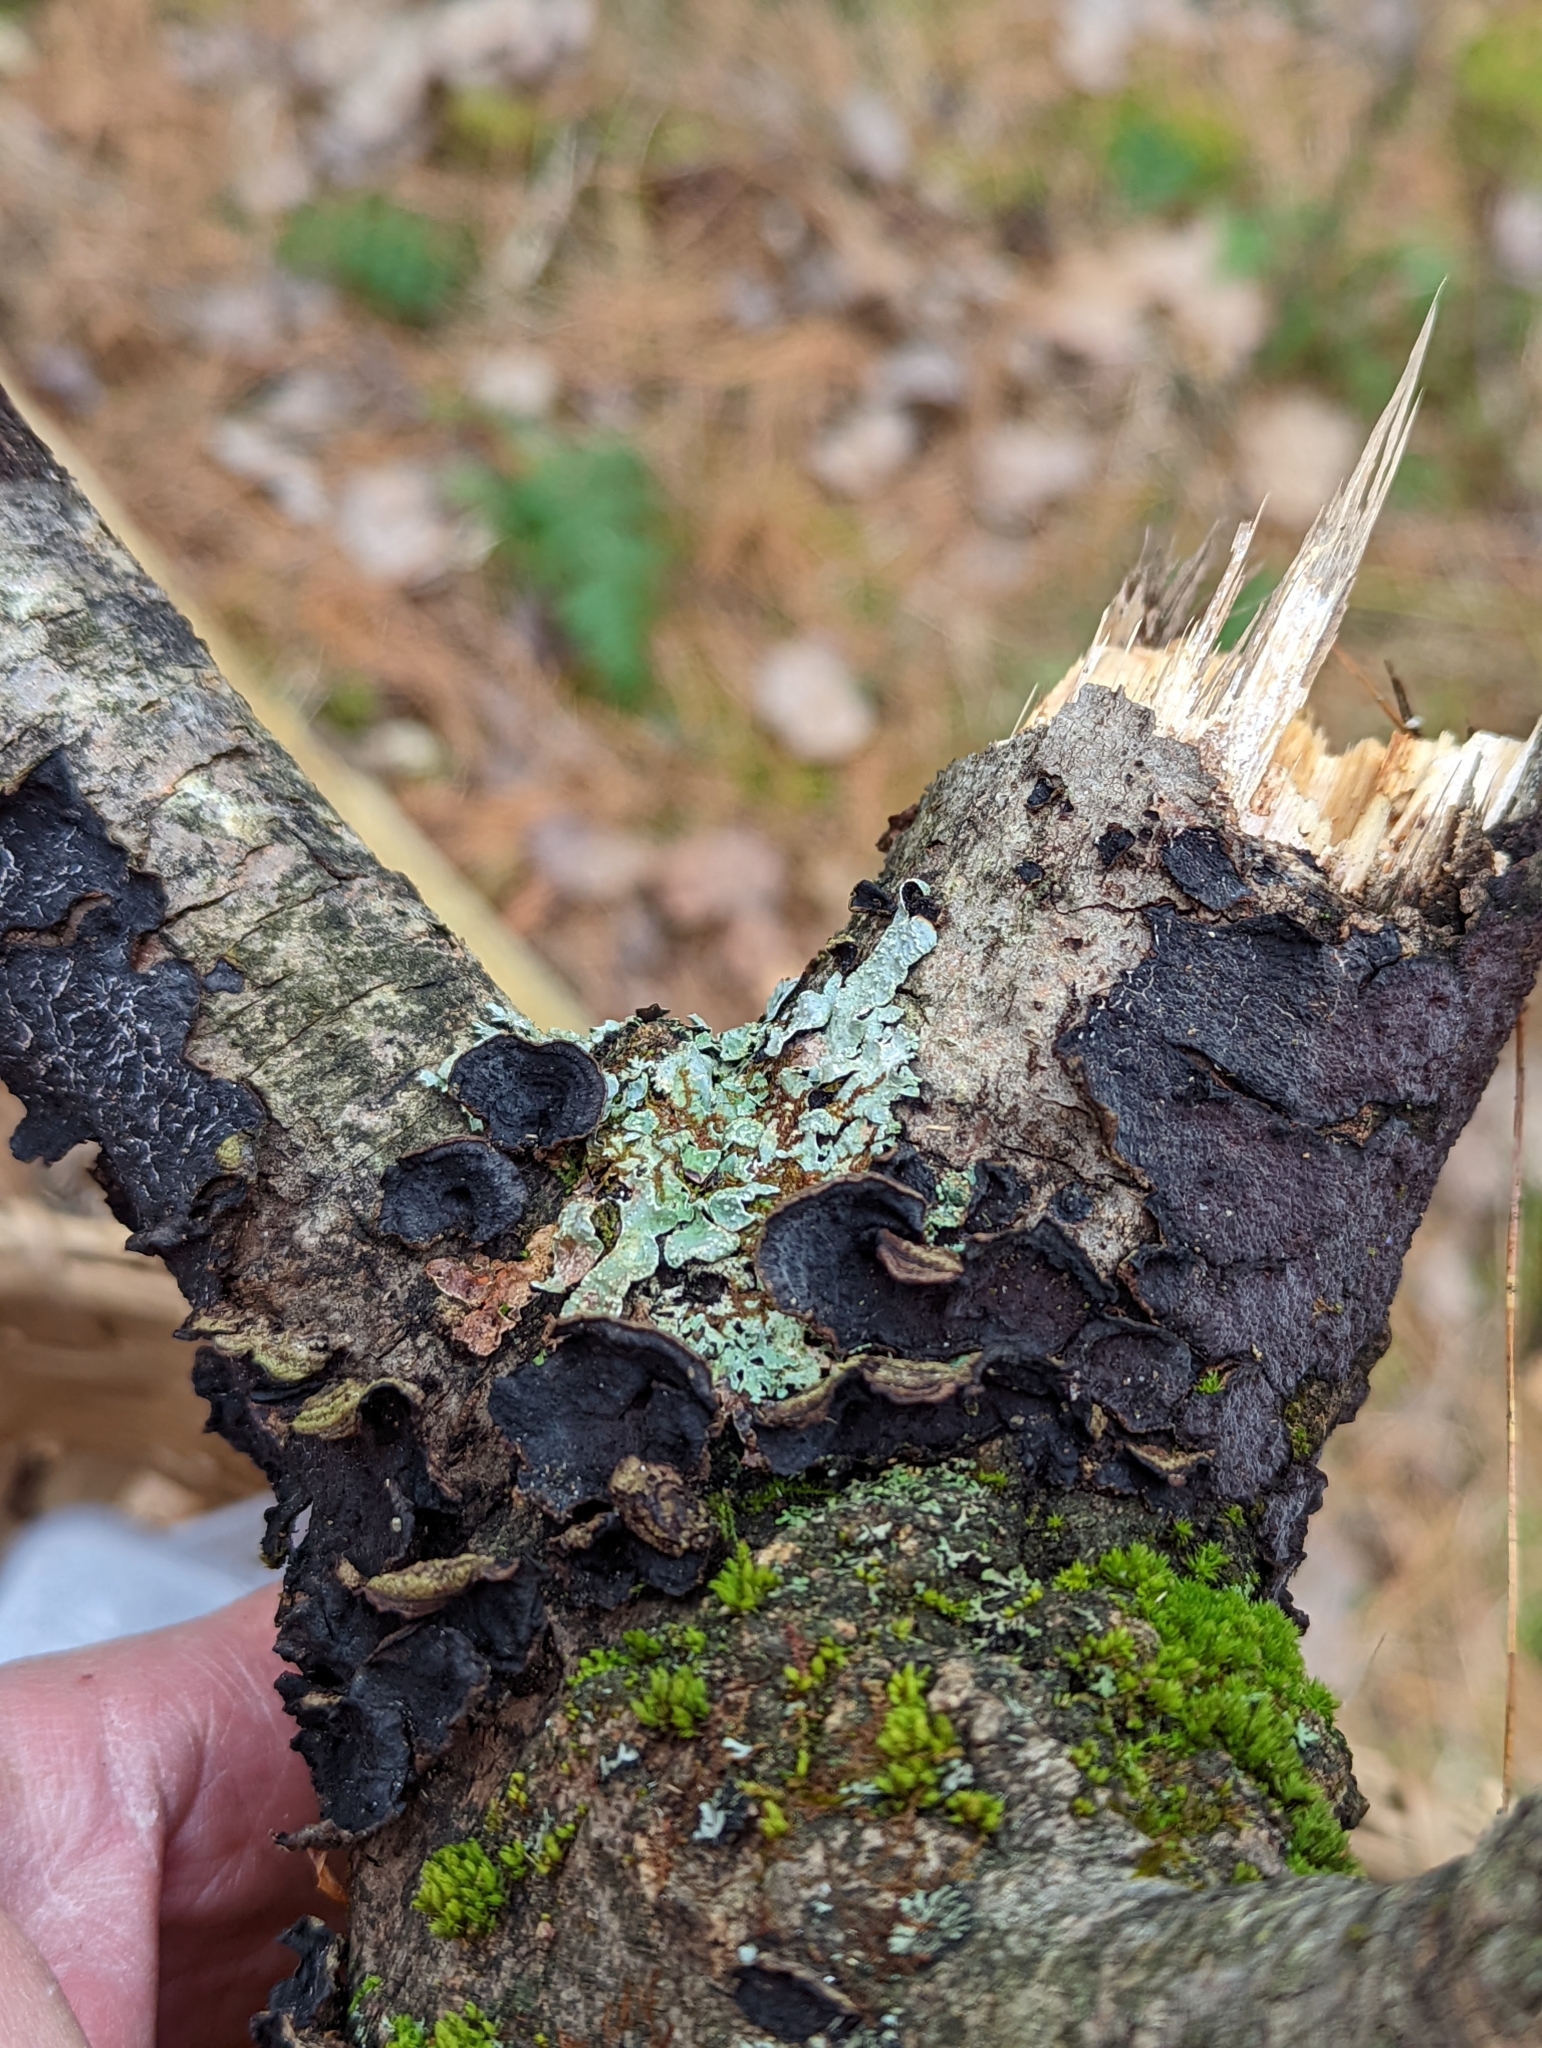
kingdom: Fungi
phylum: Basidiomycota
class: Agaricomycetes
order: Corticiales
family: Punctulariaceae
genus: Punctularia
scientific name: Punctularia strigosozonata
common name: White-rot fungus
